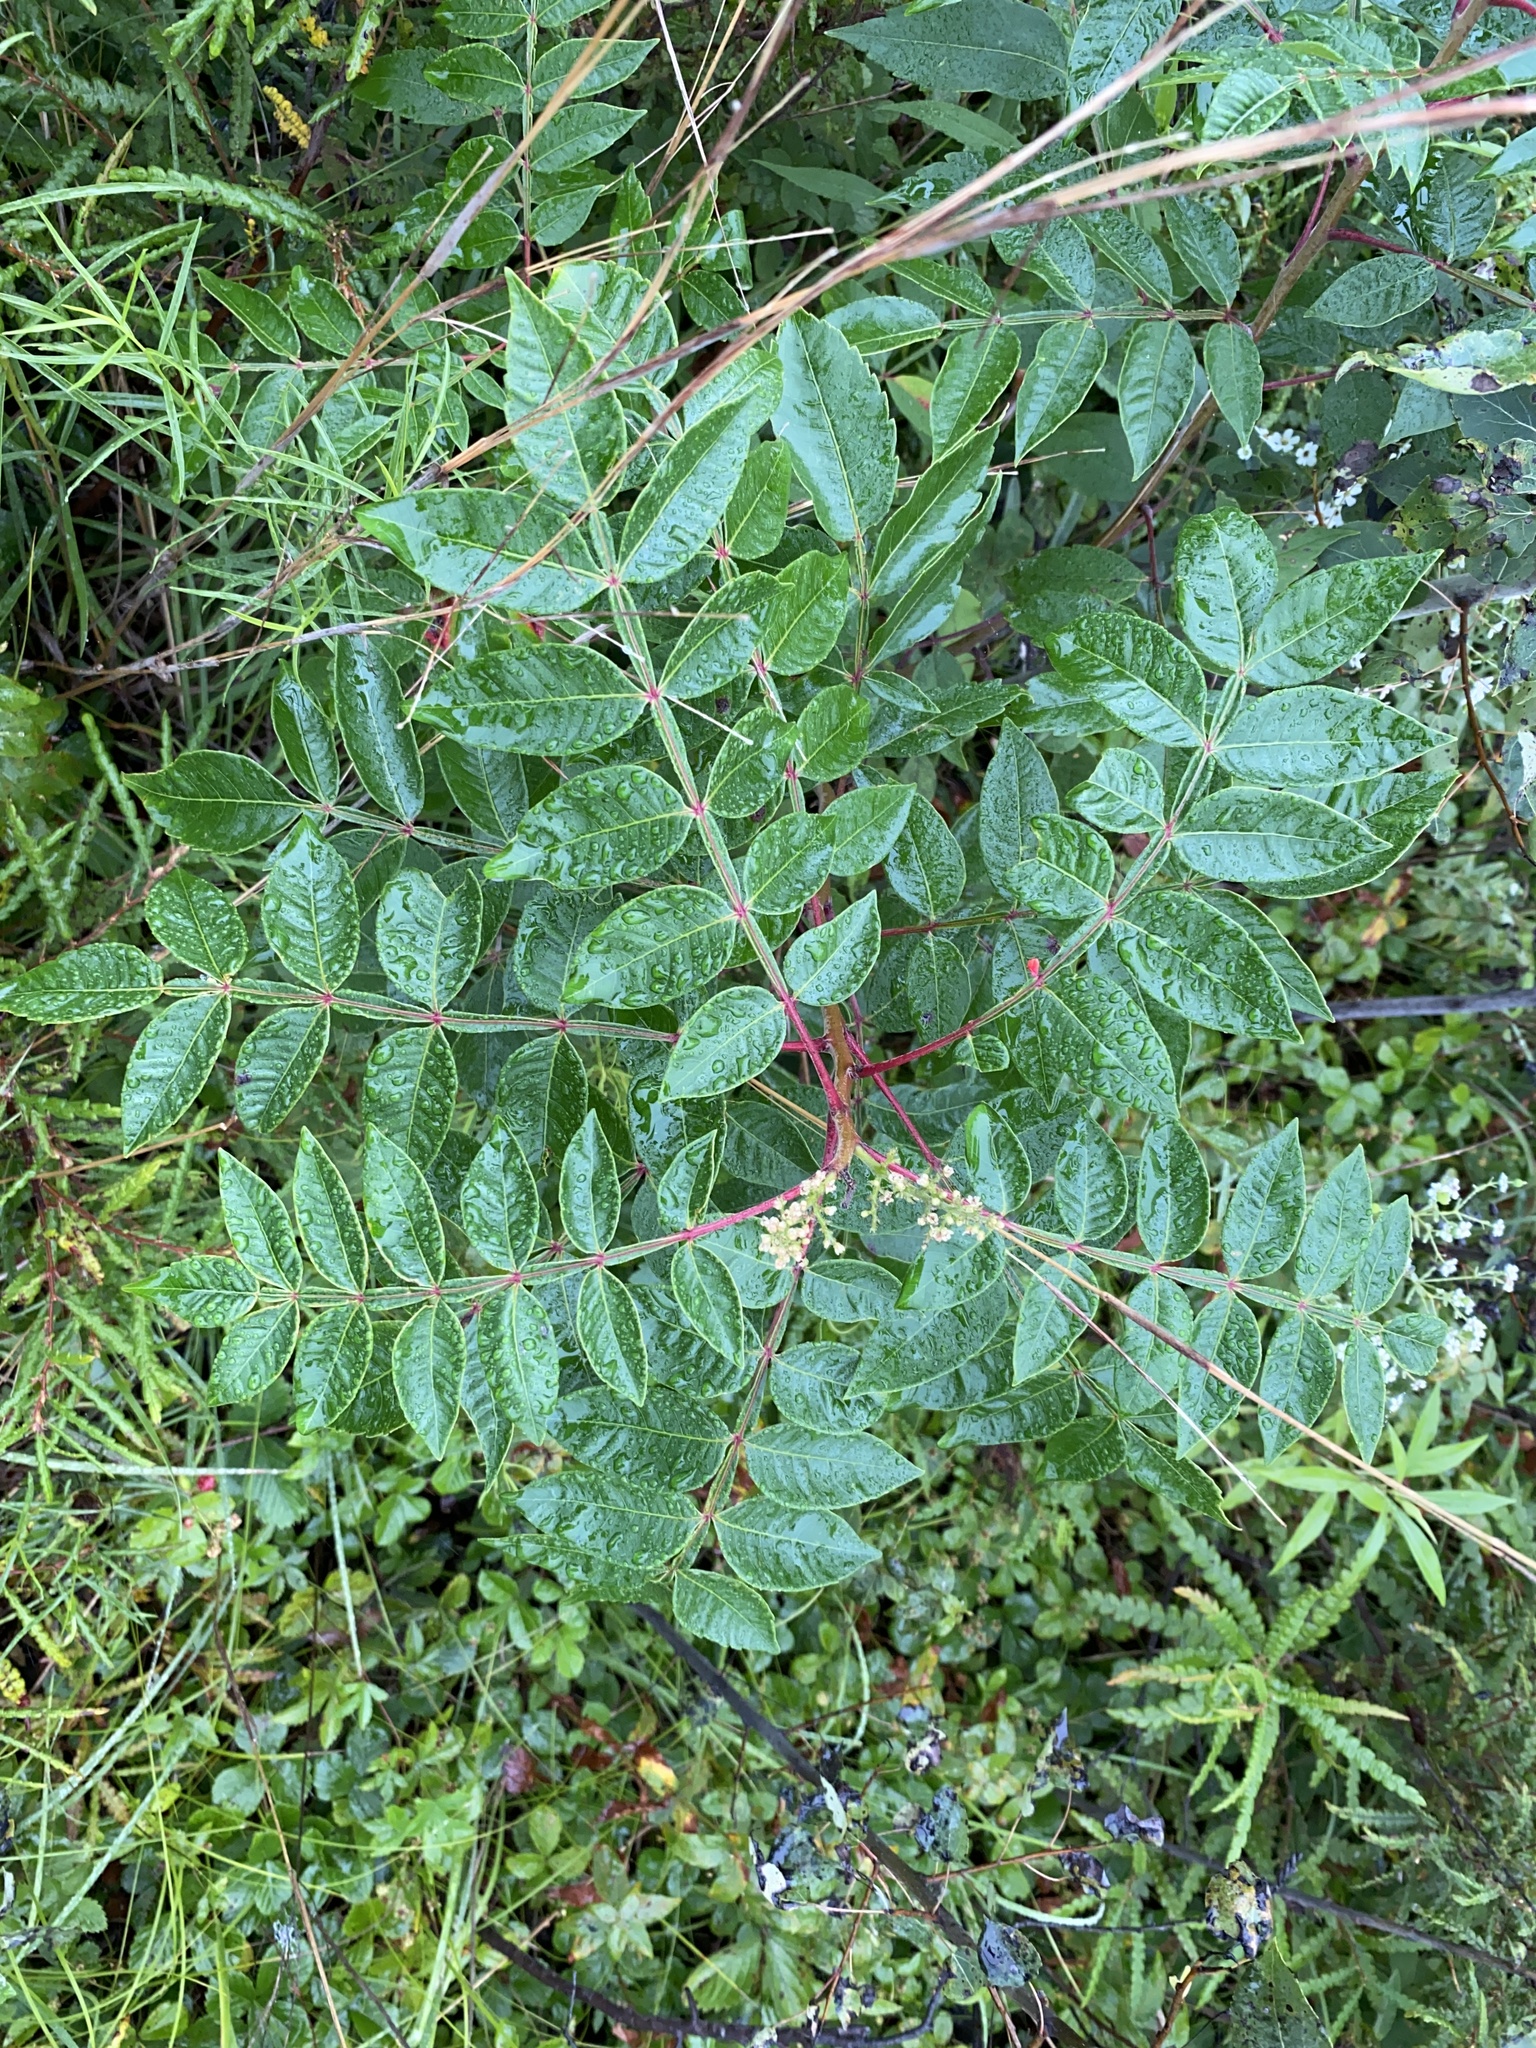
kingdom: Plantae
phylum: Tracheophyta
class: Magnoliopsida
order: Sapindales
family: Anacardiaceae
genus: Rhus
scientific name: Rhus copallina
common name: Shining sumac
